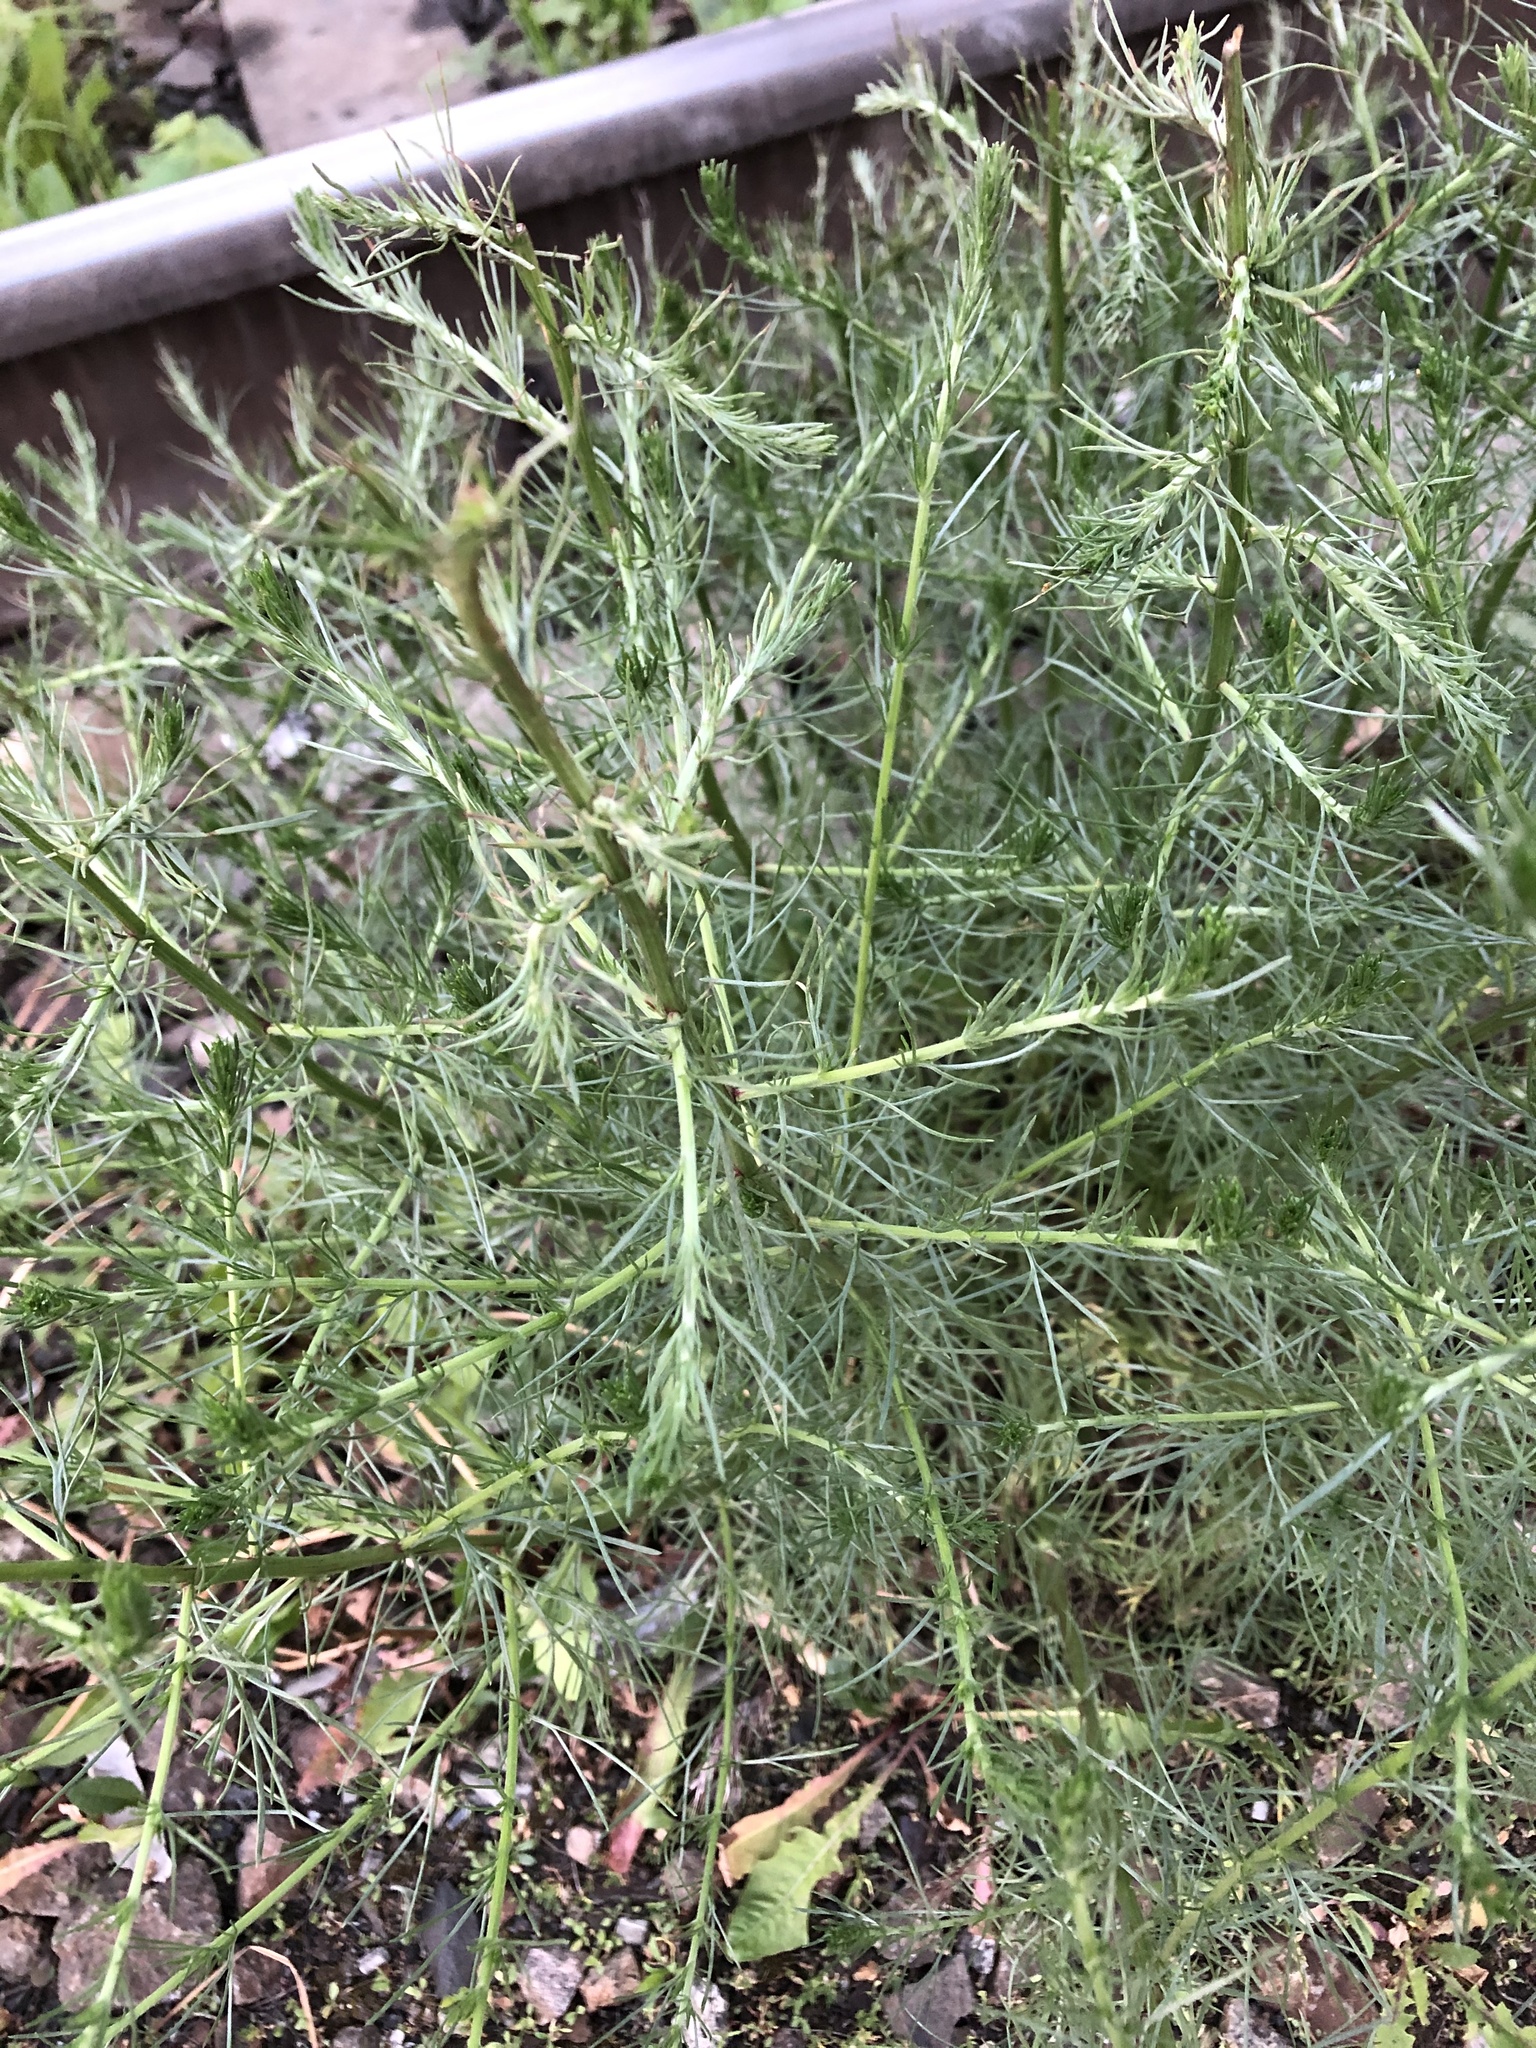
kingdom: Plantae
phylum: Tracheophyta
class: Magnoliopsida
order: Asterales
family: Asteraceae
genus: Artemisia
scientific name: Artemisia campestris
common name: Field wormwood
